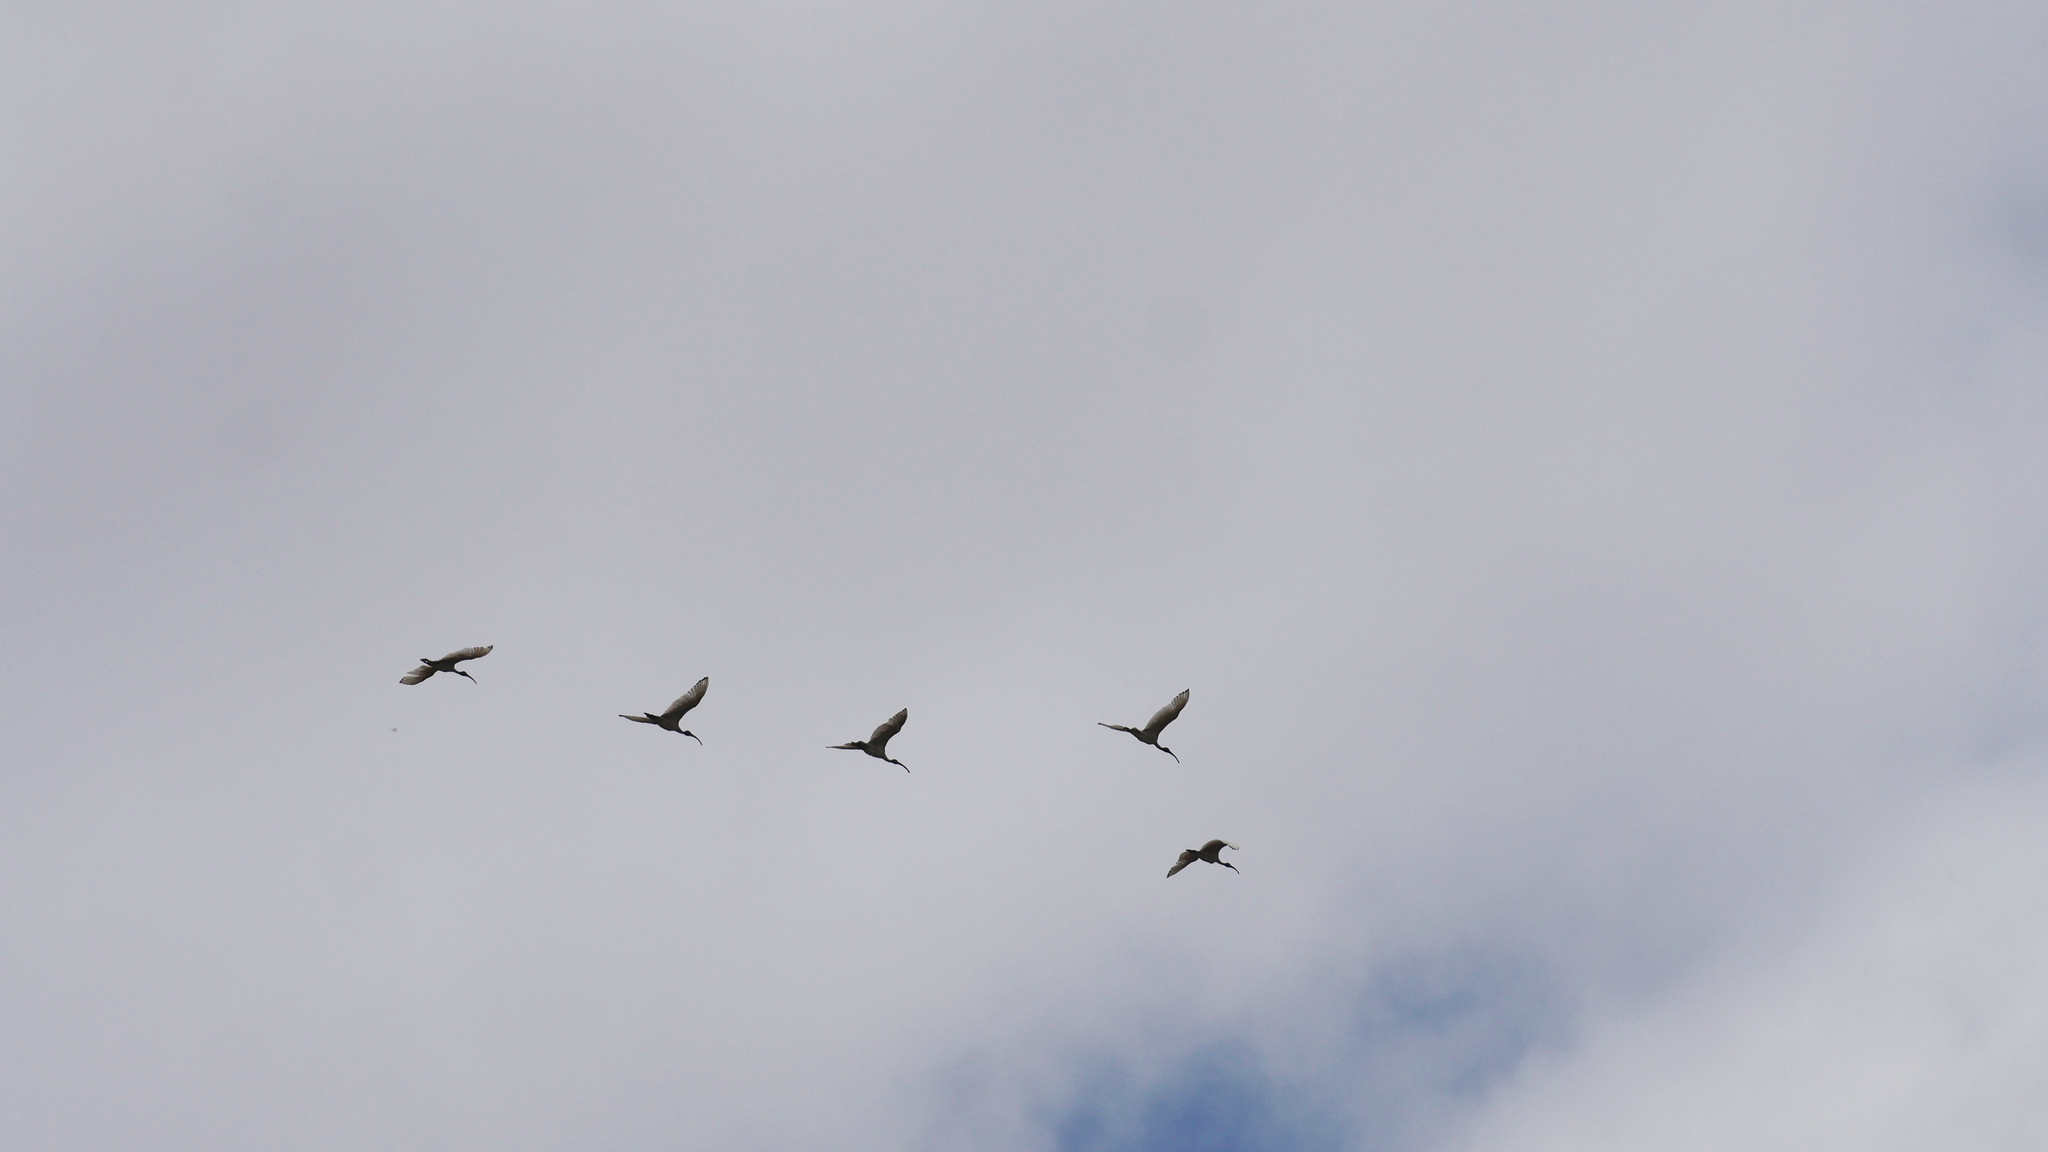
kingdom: Animalia
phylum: Chordata
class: Aves
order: Pelecaniformes
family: Threskiornithidae
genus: Threskiornis
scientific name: Threskiornis molucca
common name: Australian white ibis
